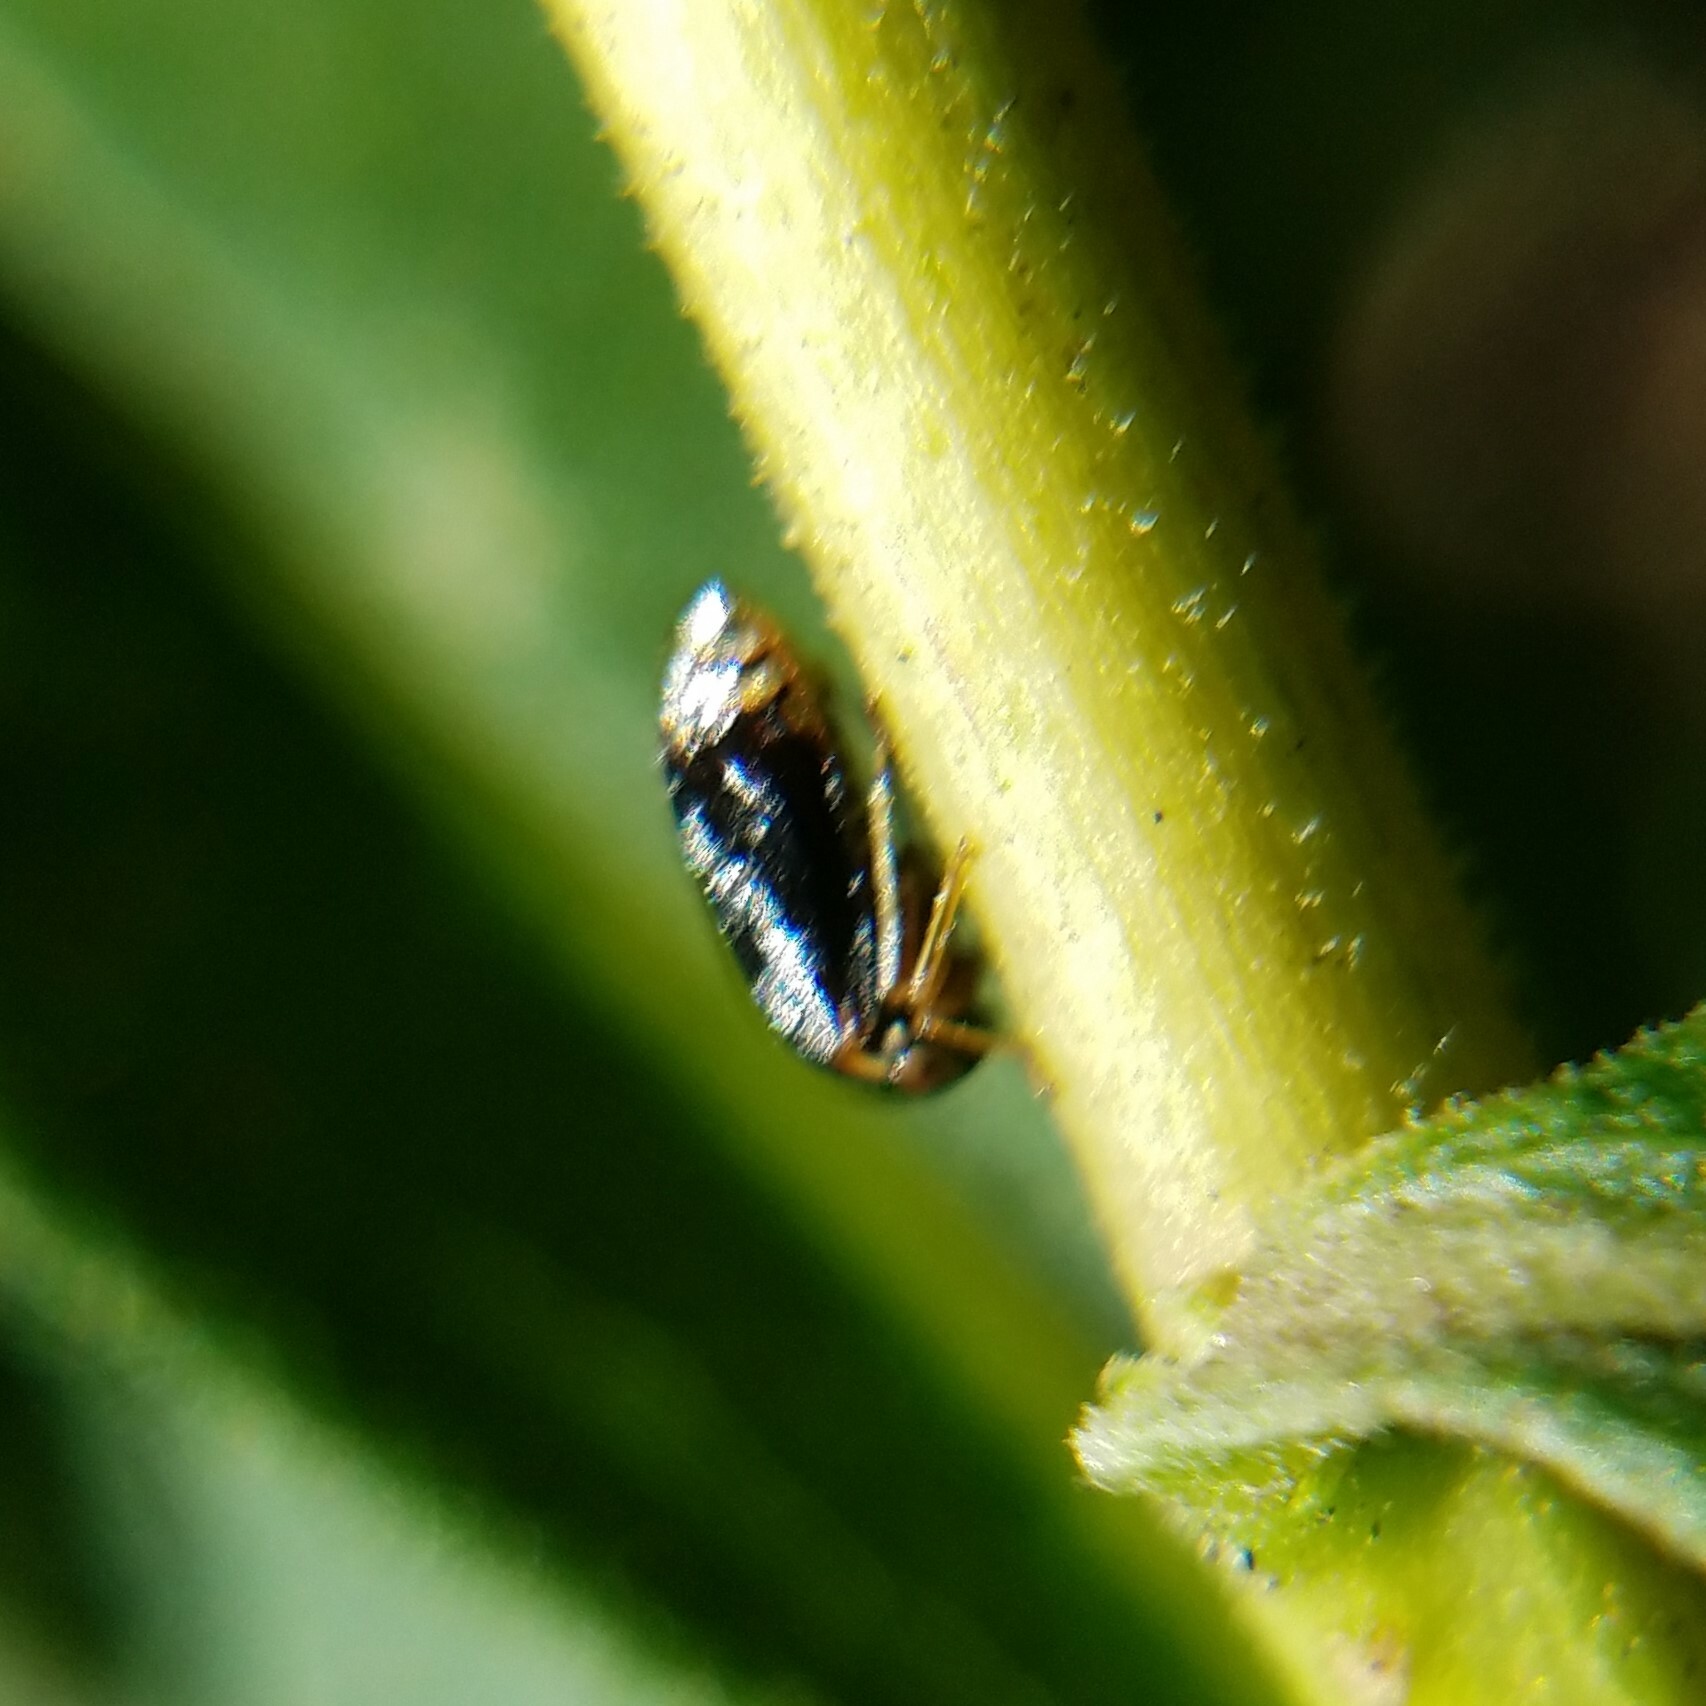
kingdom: Animalia
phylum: Arthropoda
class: Insecta
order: Hemiptera
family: Membracidae
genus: Acutalis
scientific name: Acutalis tartarea
